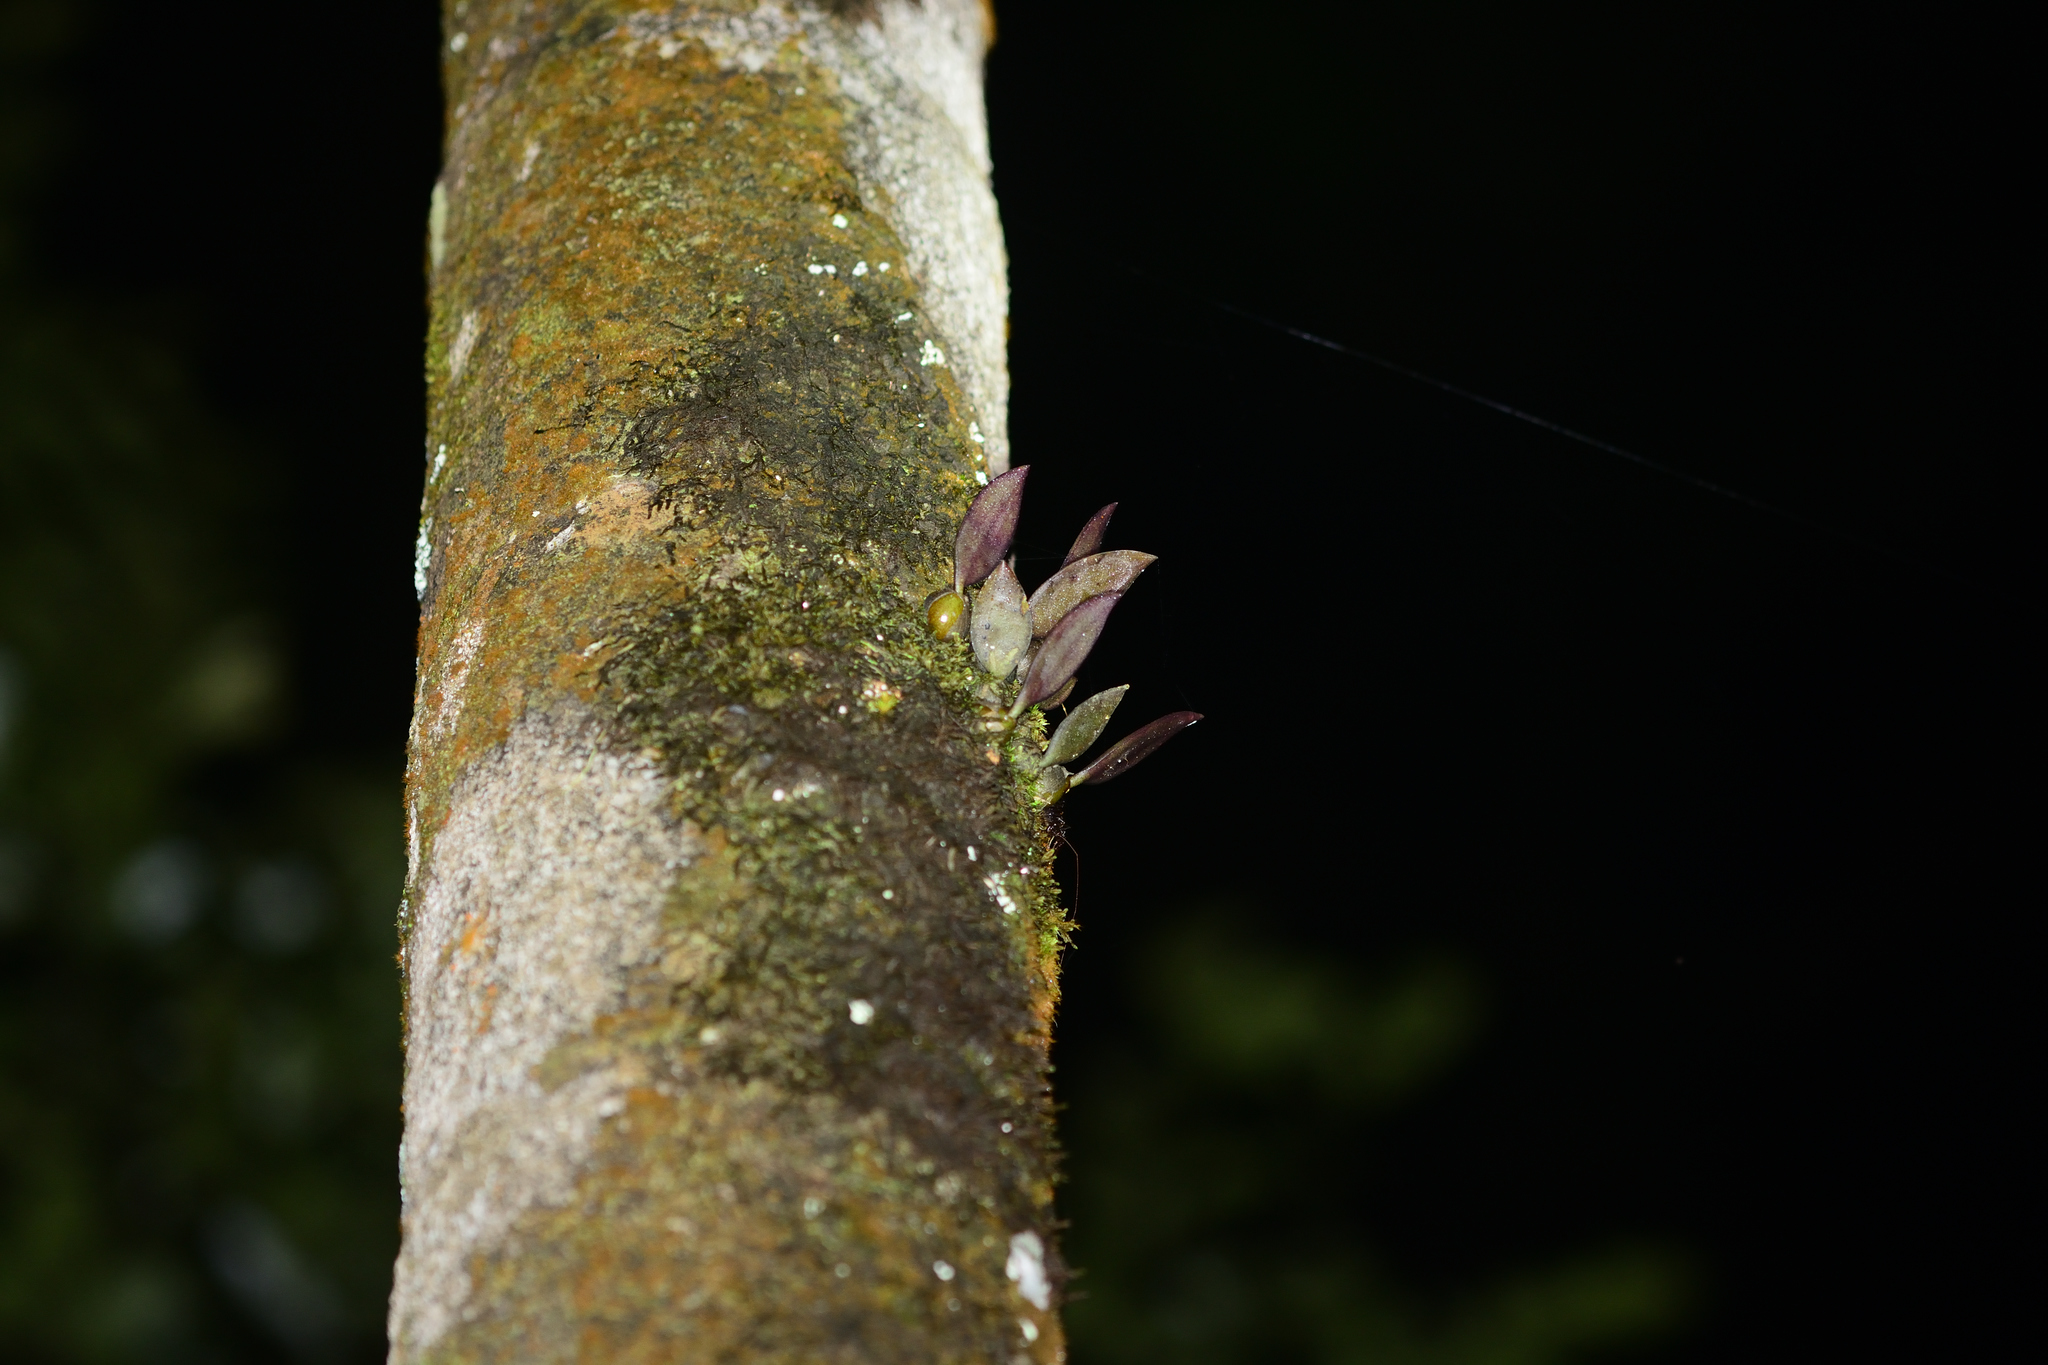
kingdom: Plantae
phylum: Tracheophyta
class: Liliopsida
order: Asparagales
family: Orchidaceae
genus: Bulbophyllum
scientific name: Bulbophyllum stocksii
